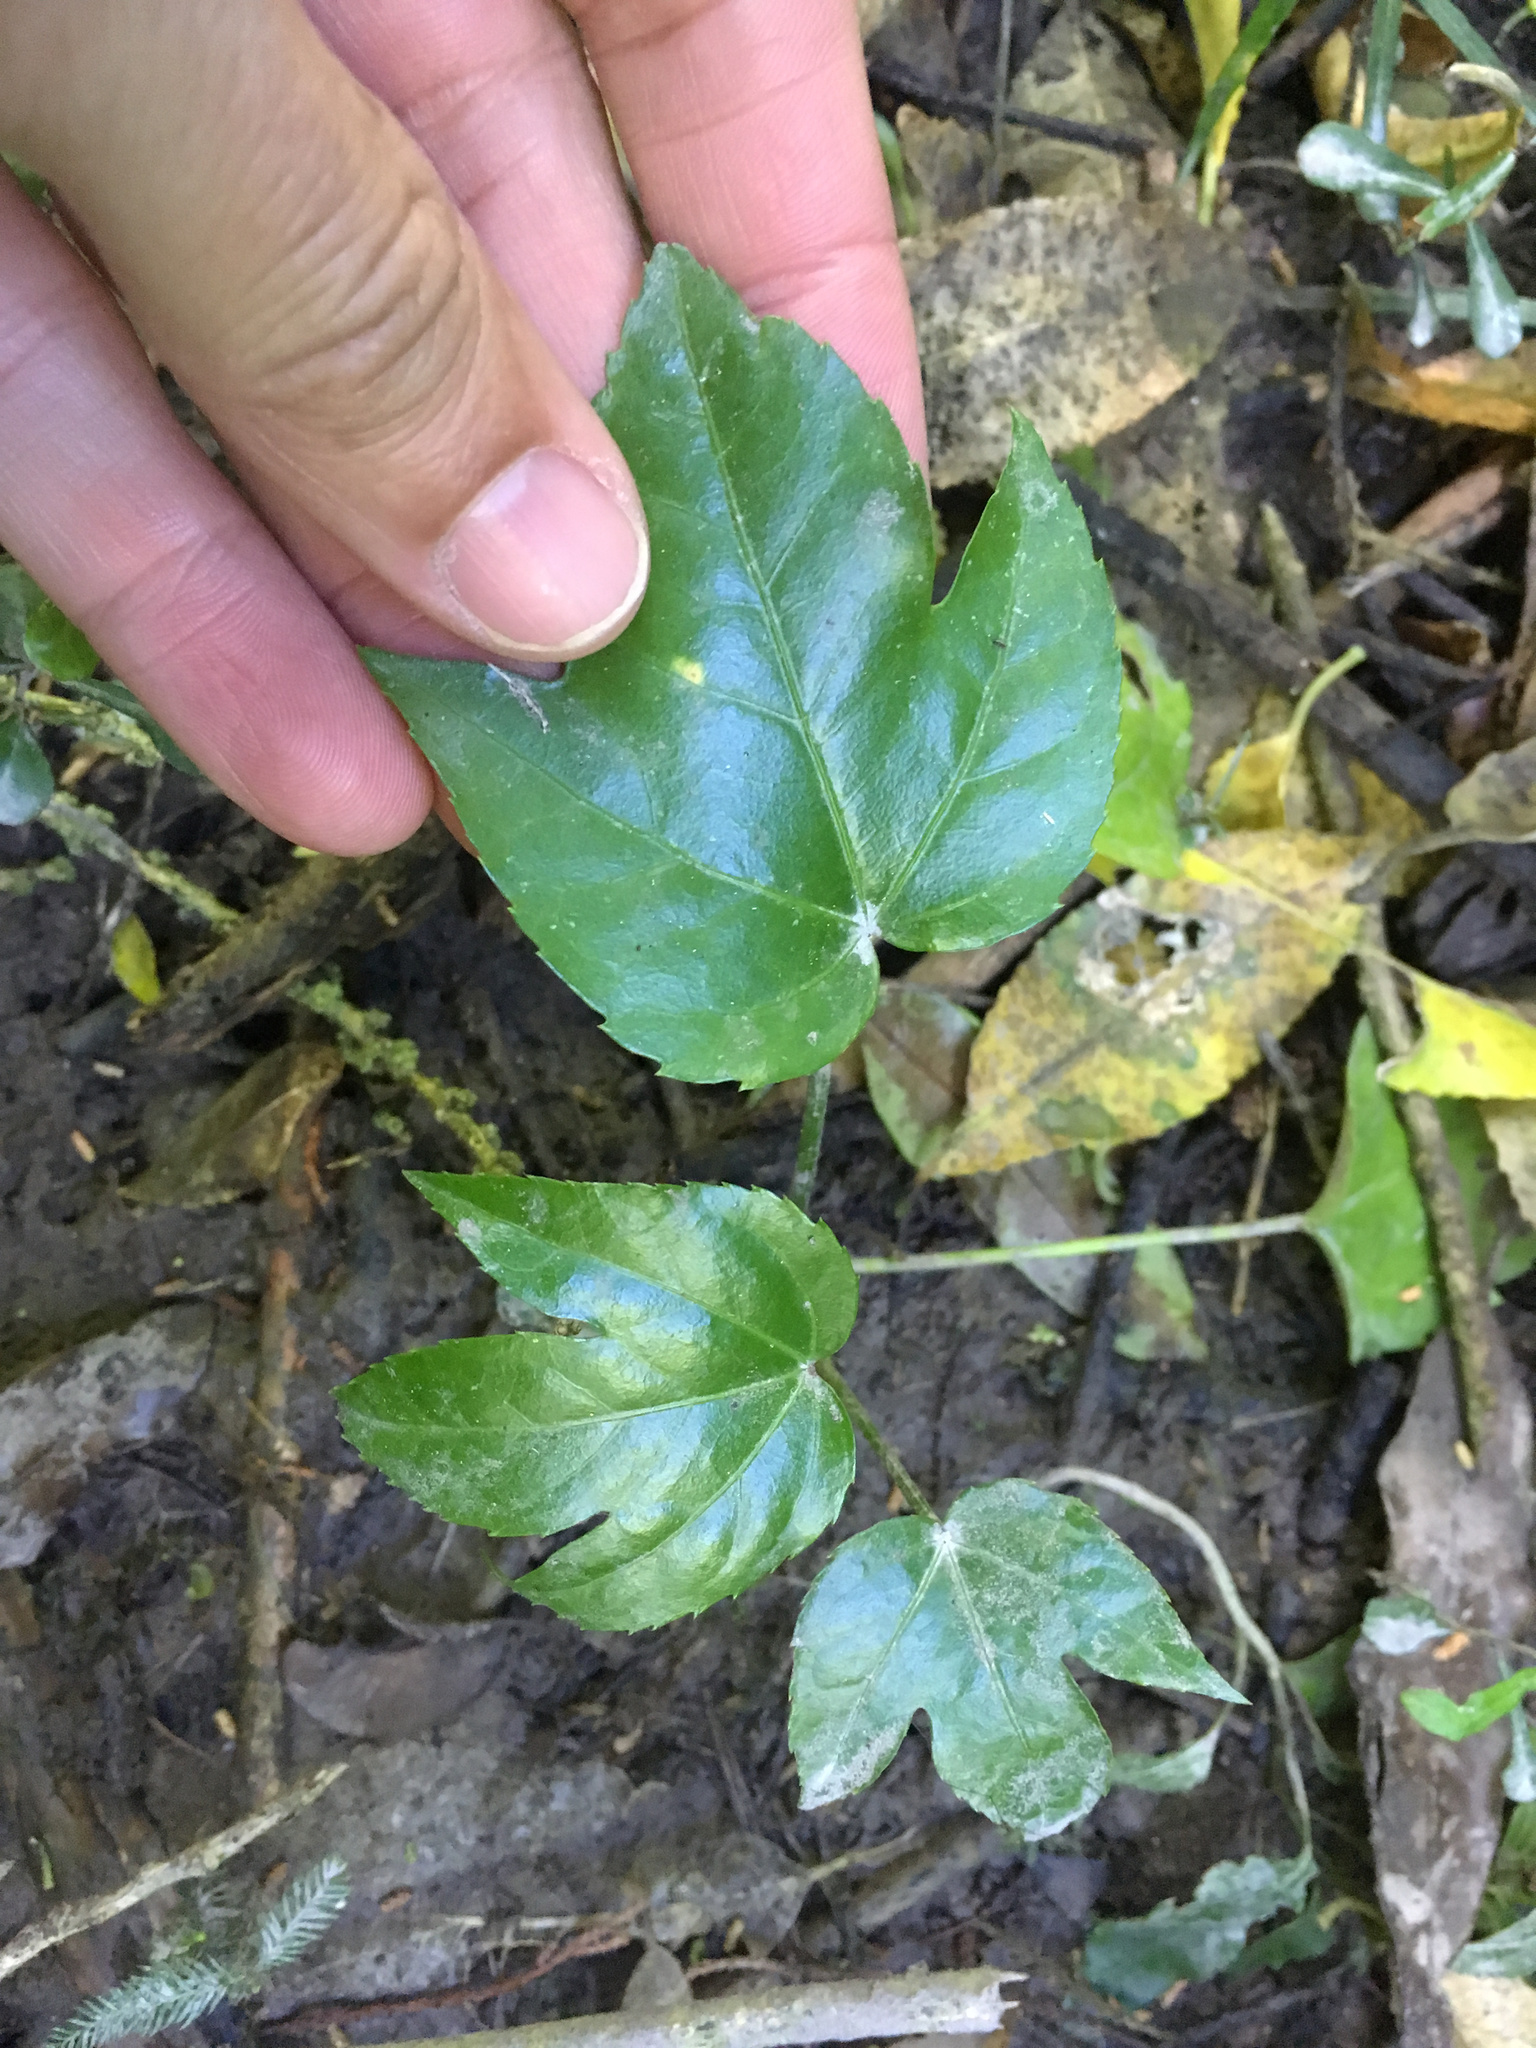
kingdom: Plantae
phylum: Tracheophyta
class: Magnoliopsida
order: Apiales
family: Araliaceae
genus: Fatsia
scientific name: Fatsia japonica
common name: Fatsia
